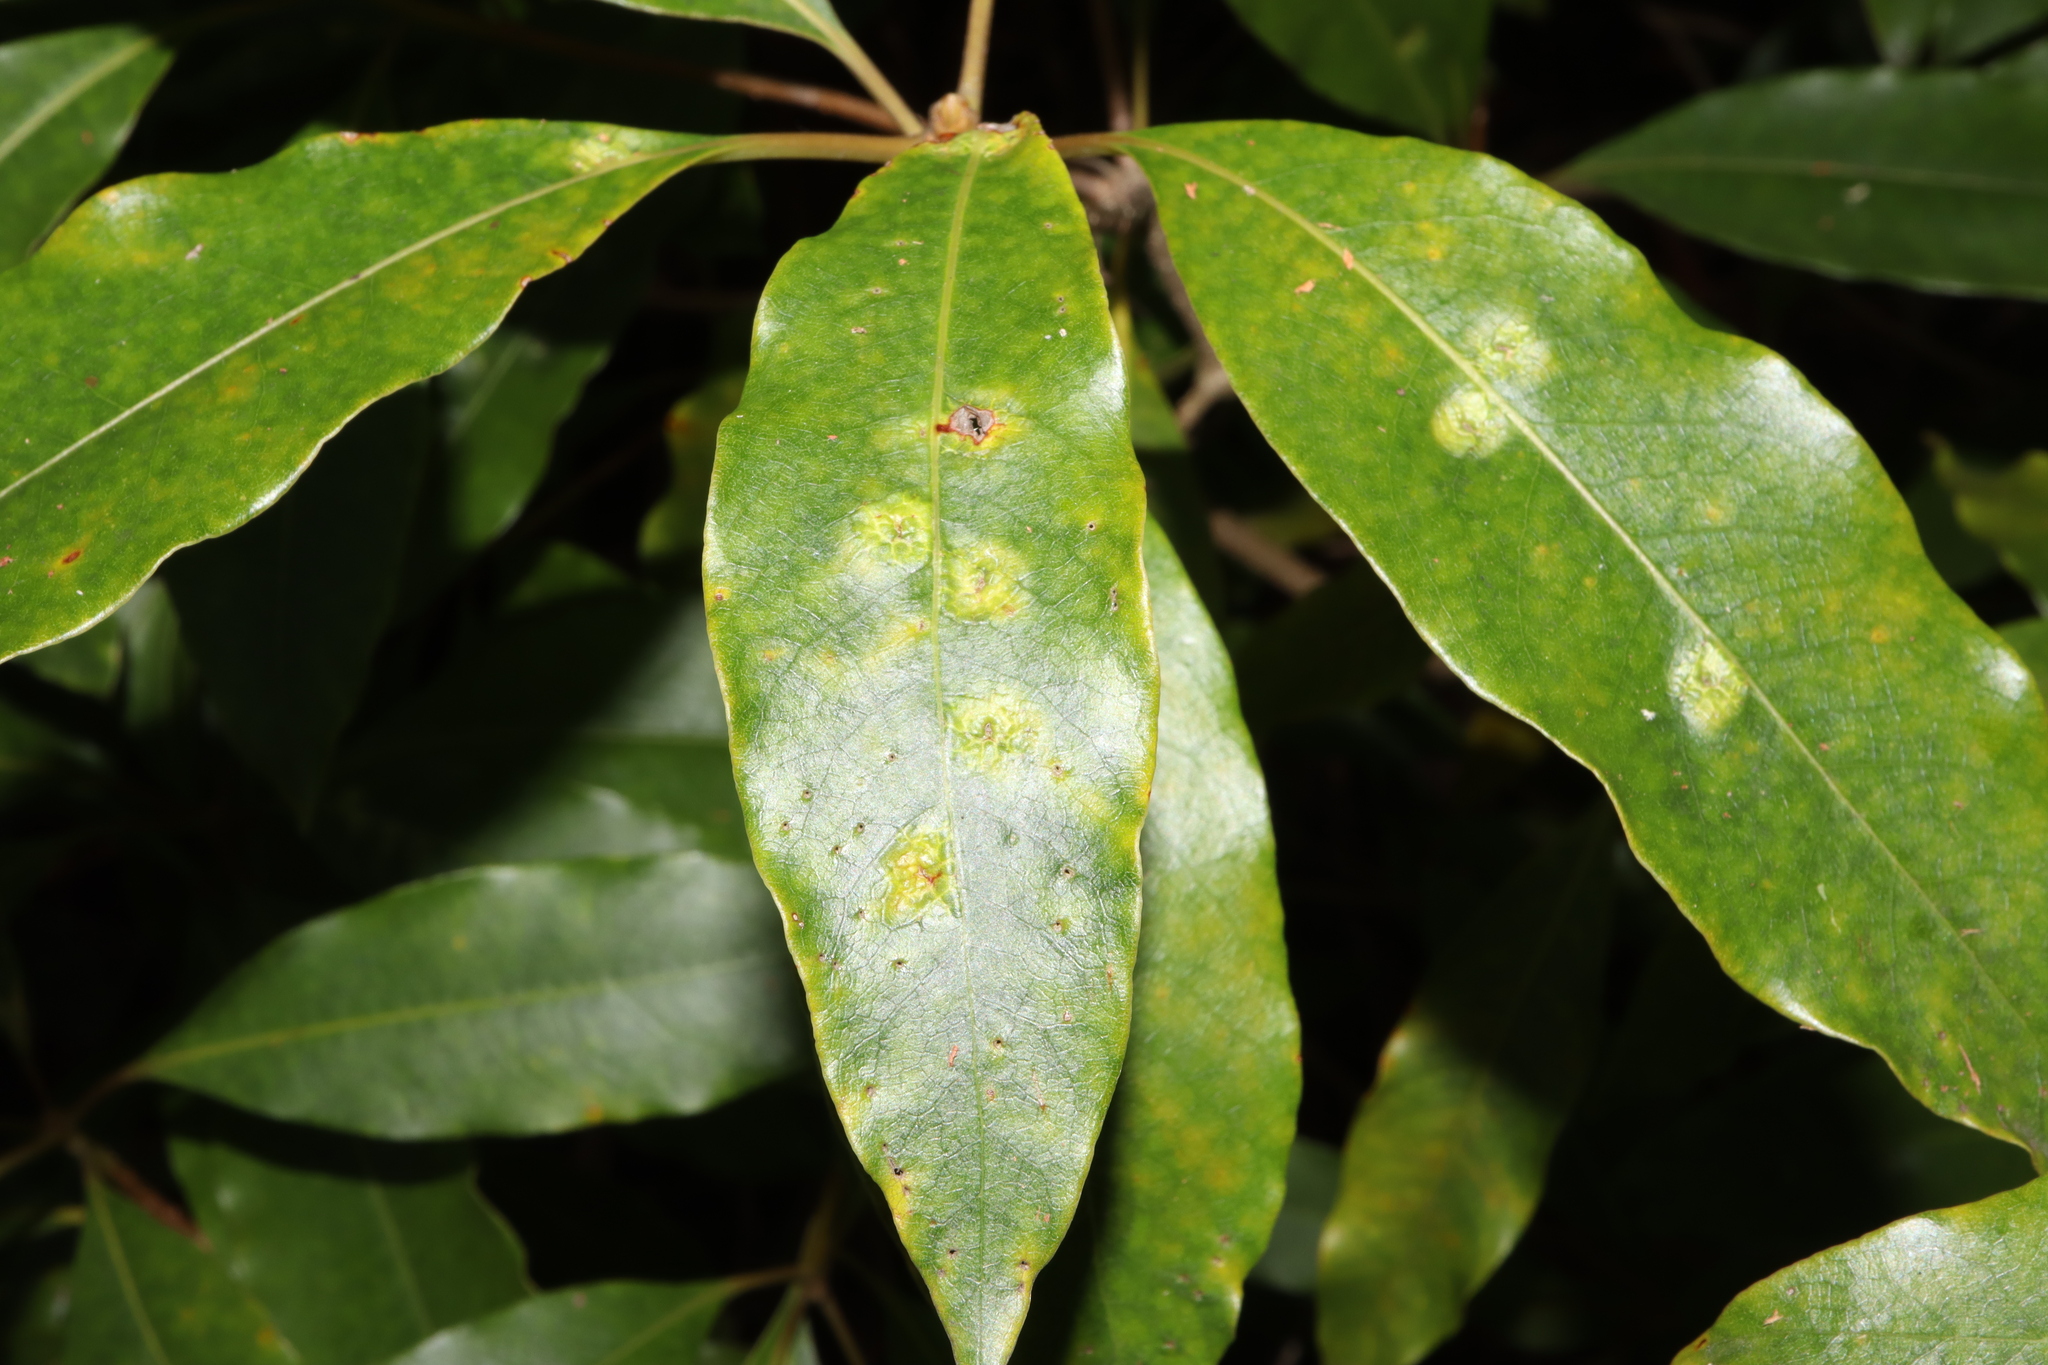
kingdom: Animalia
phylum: Arthropoda
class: Insecta
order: Diptera
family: Agromyzidae
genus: Phytoliriomyza
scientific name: Phytoliriomyza pittosporophylli
